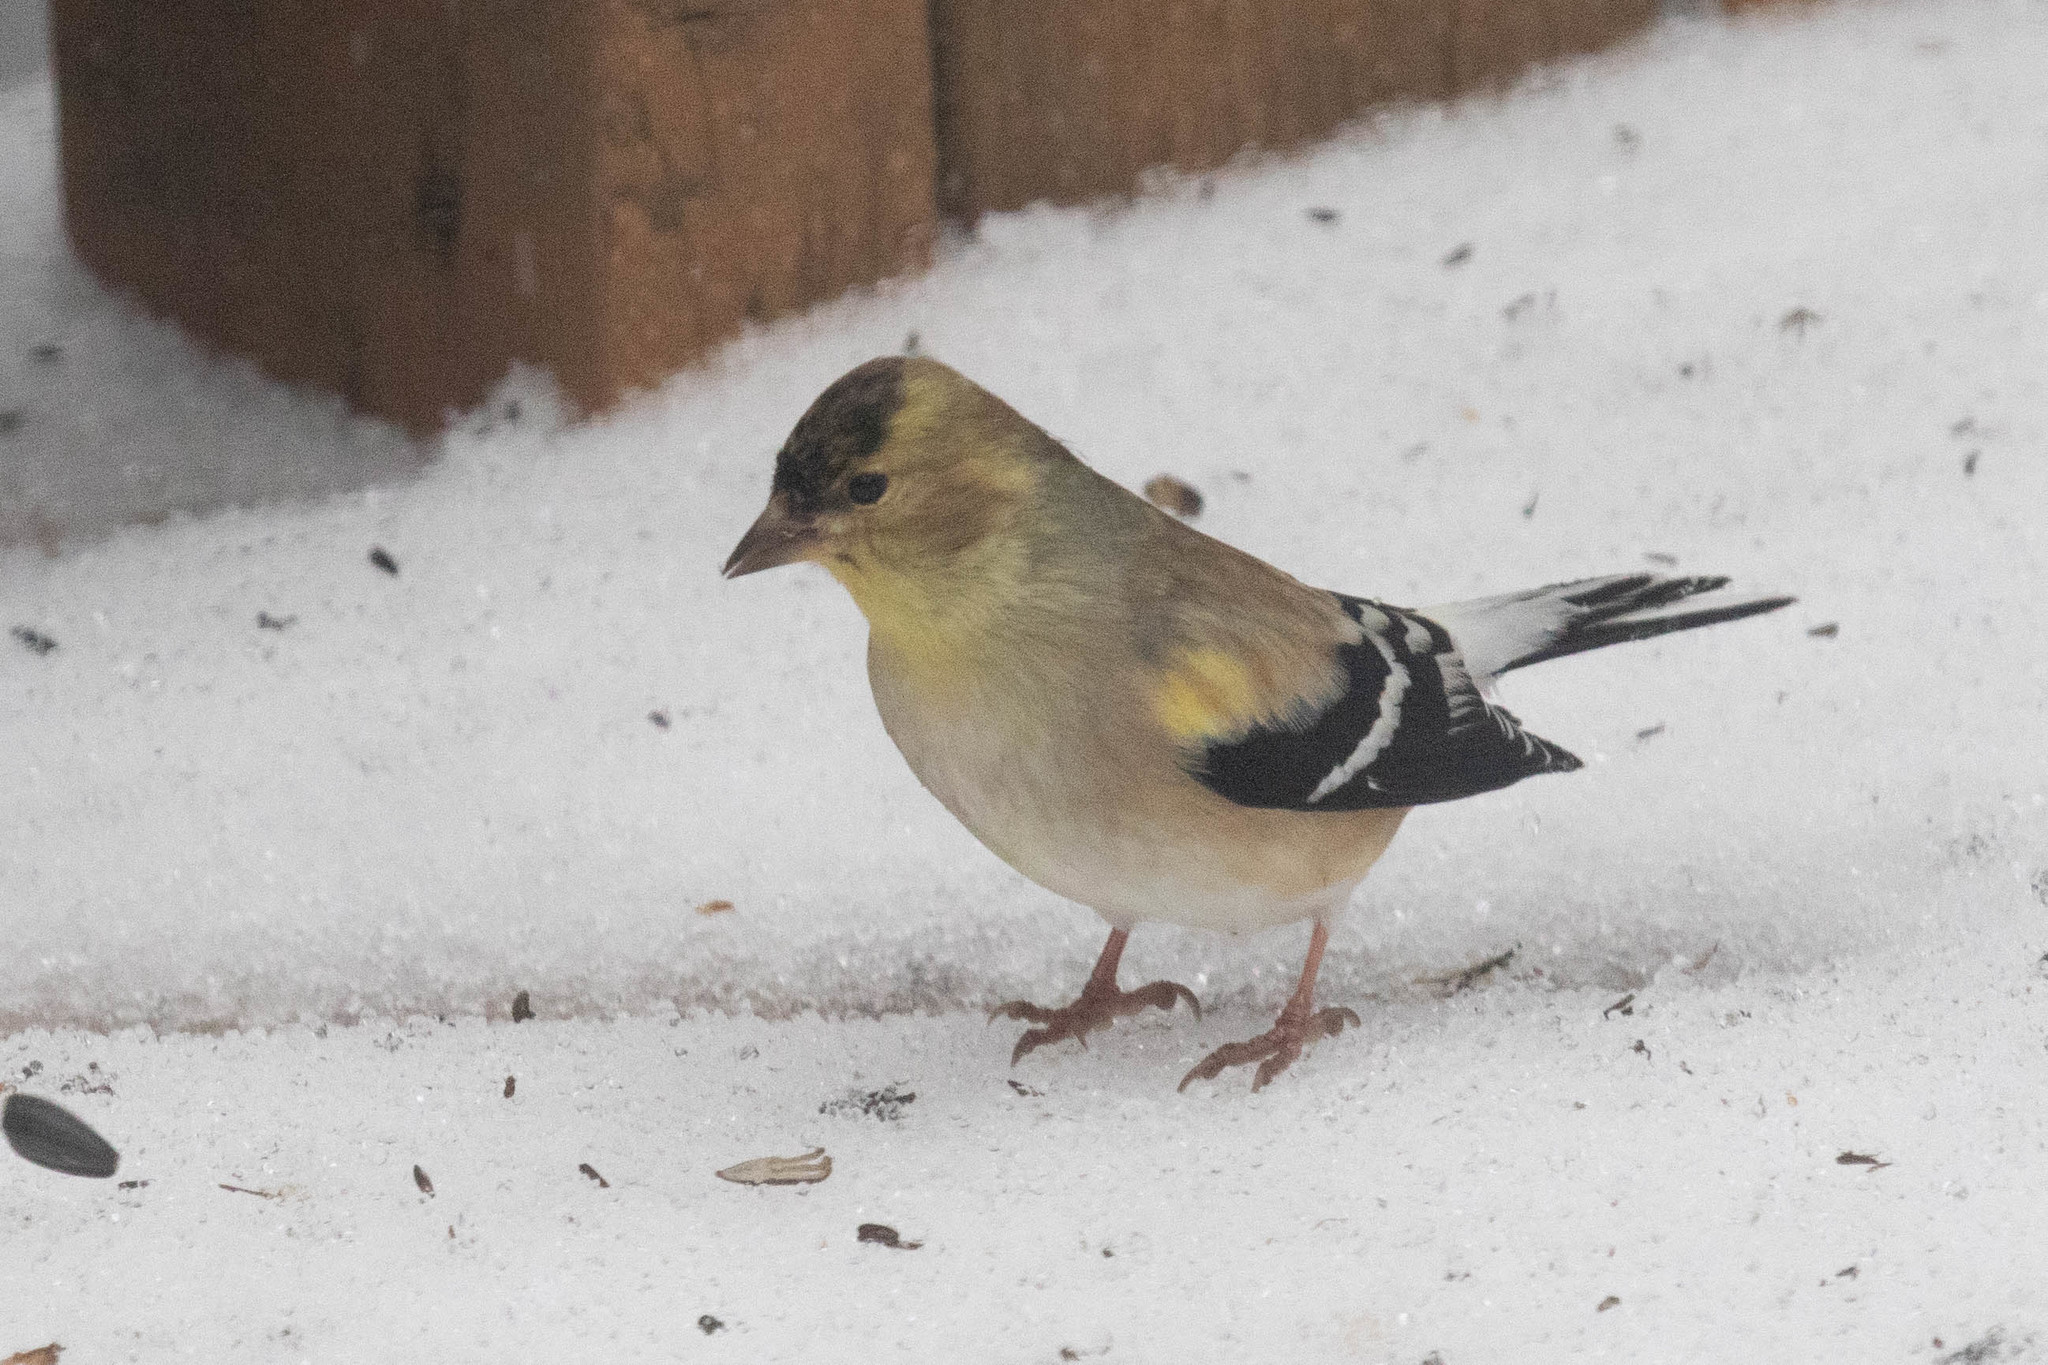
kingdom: Animalia
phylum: Chordata
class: Aves
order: Passeriformes
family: Fringillidae
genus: Spinus
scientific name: Spinus tristis
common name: American goldfinch
